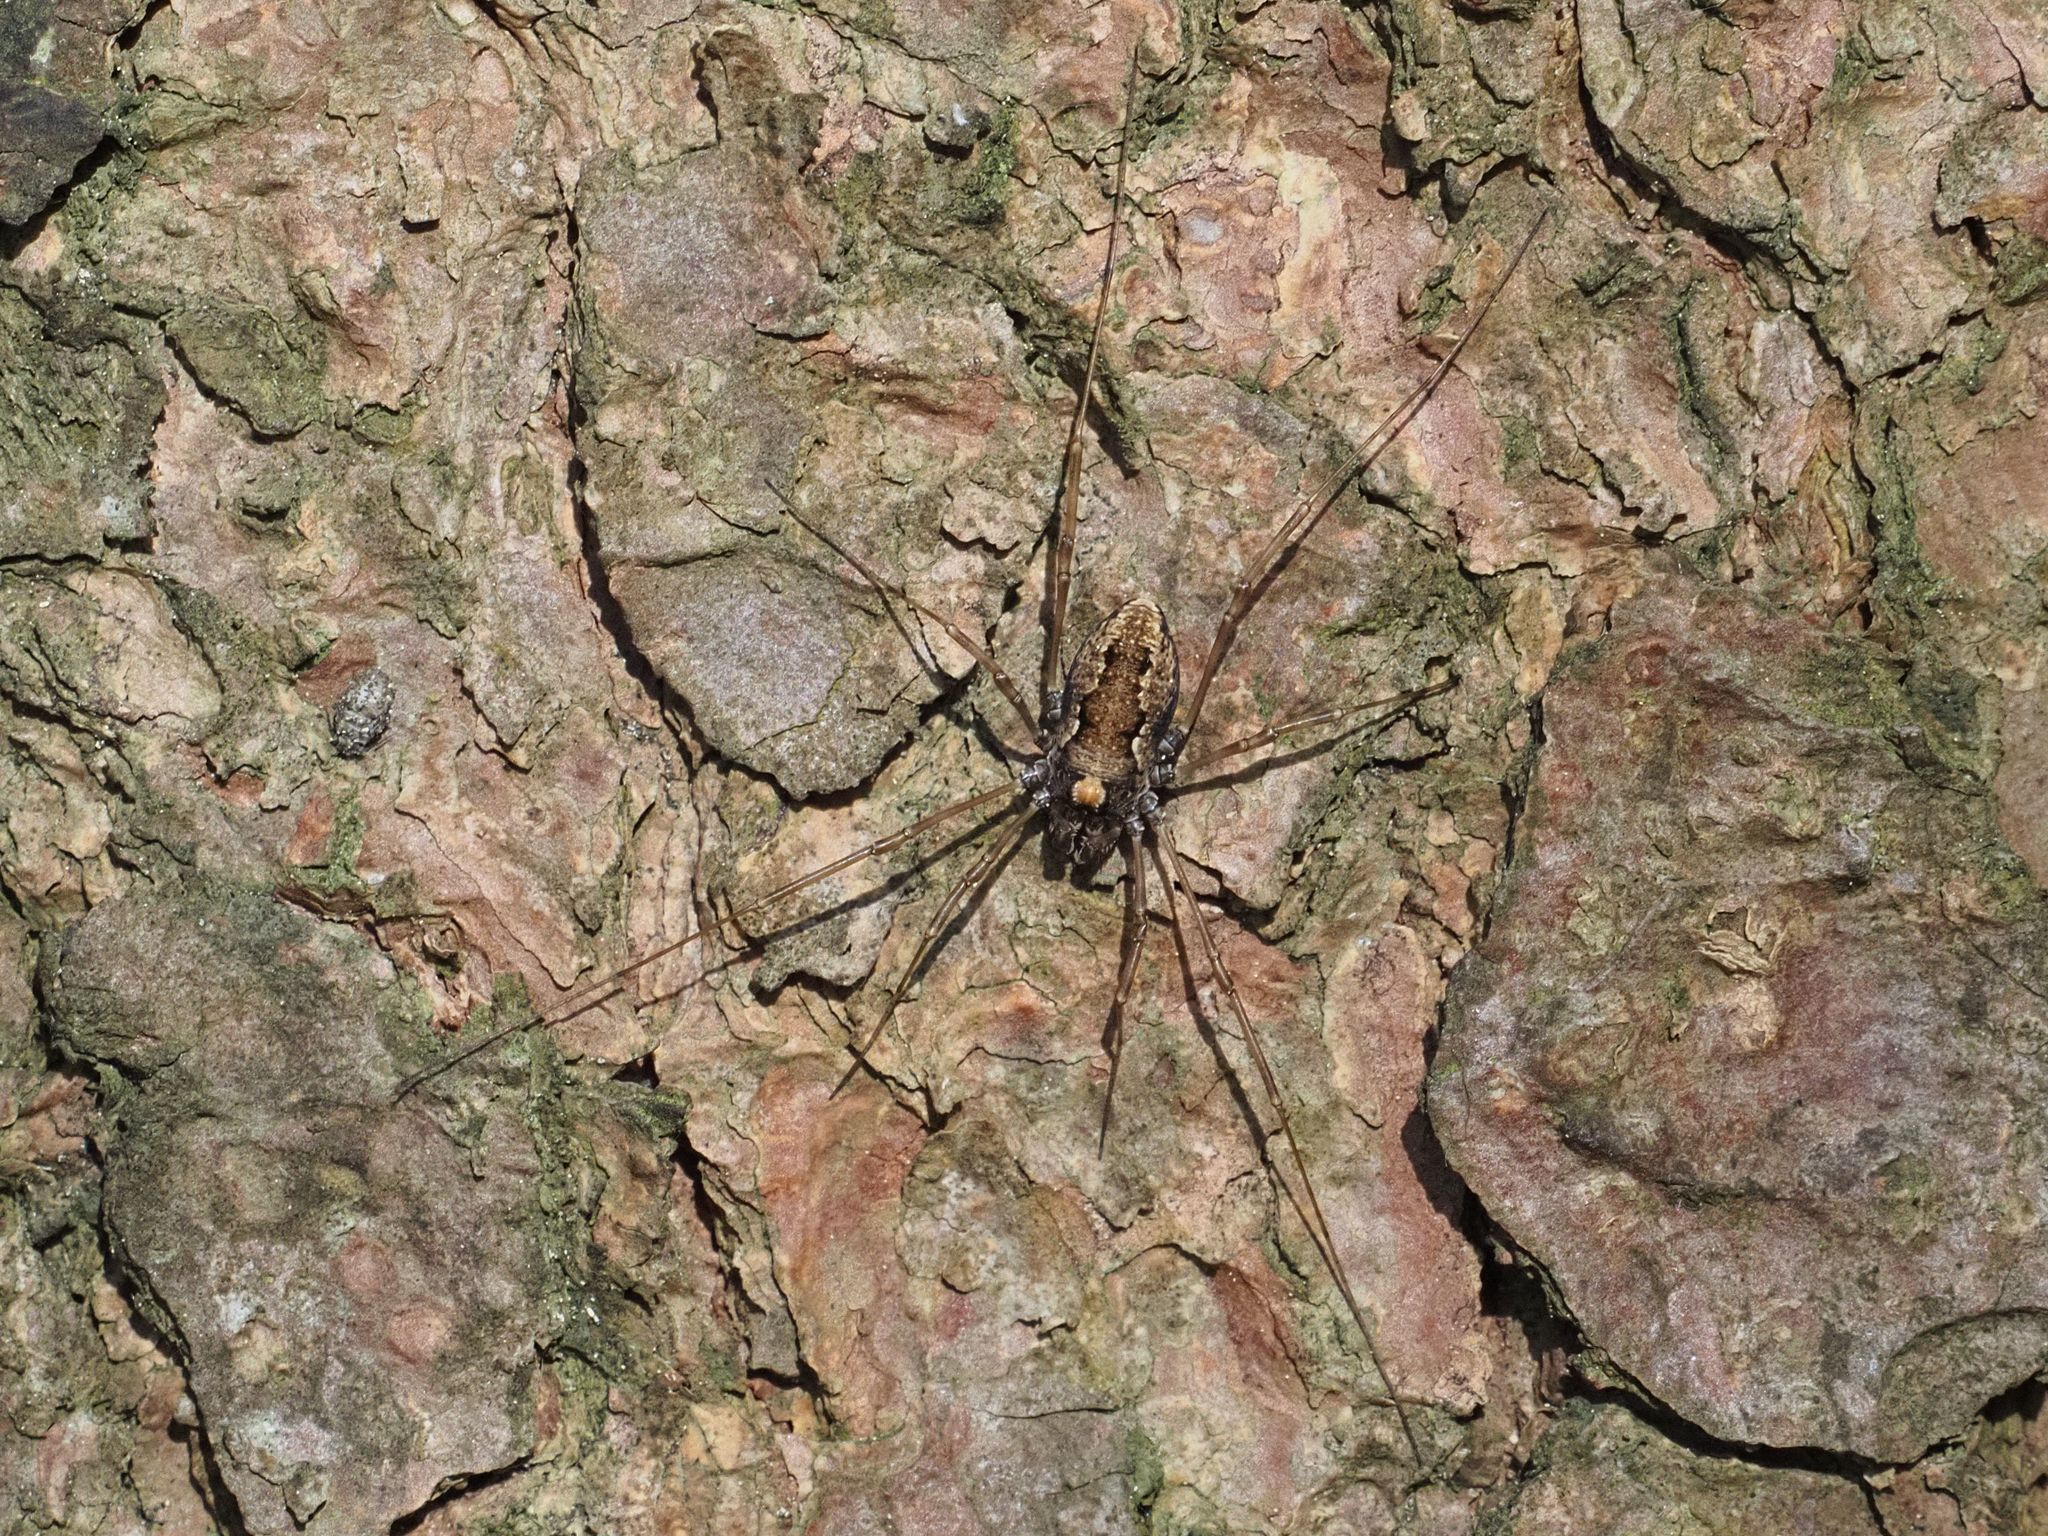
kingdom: Animalia
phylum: Arthropoda
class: Arachnida
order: Opiliones
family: Phalangiidae
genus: Platybunus
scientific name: Platybunus bucephalus
